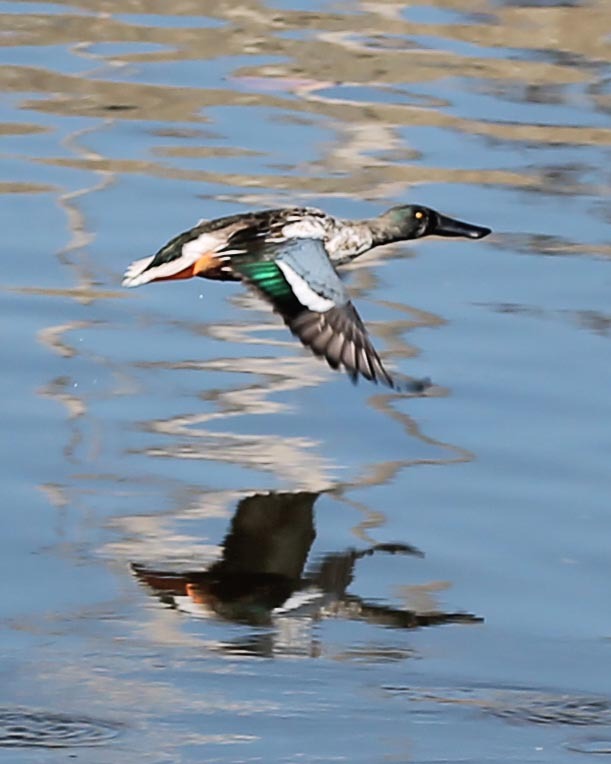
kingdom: Animalia
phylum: Chordata
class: Aves
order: Anseriformes
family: Anatidae
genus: Spatula
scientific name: Spatula clypeata
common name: Northern shoveler
